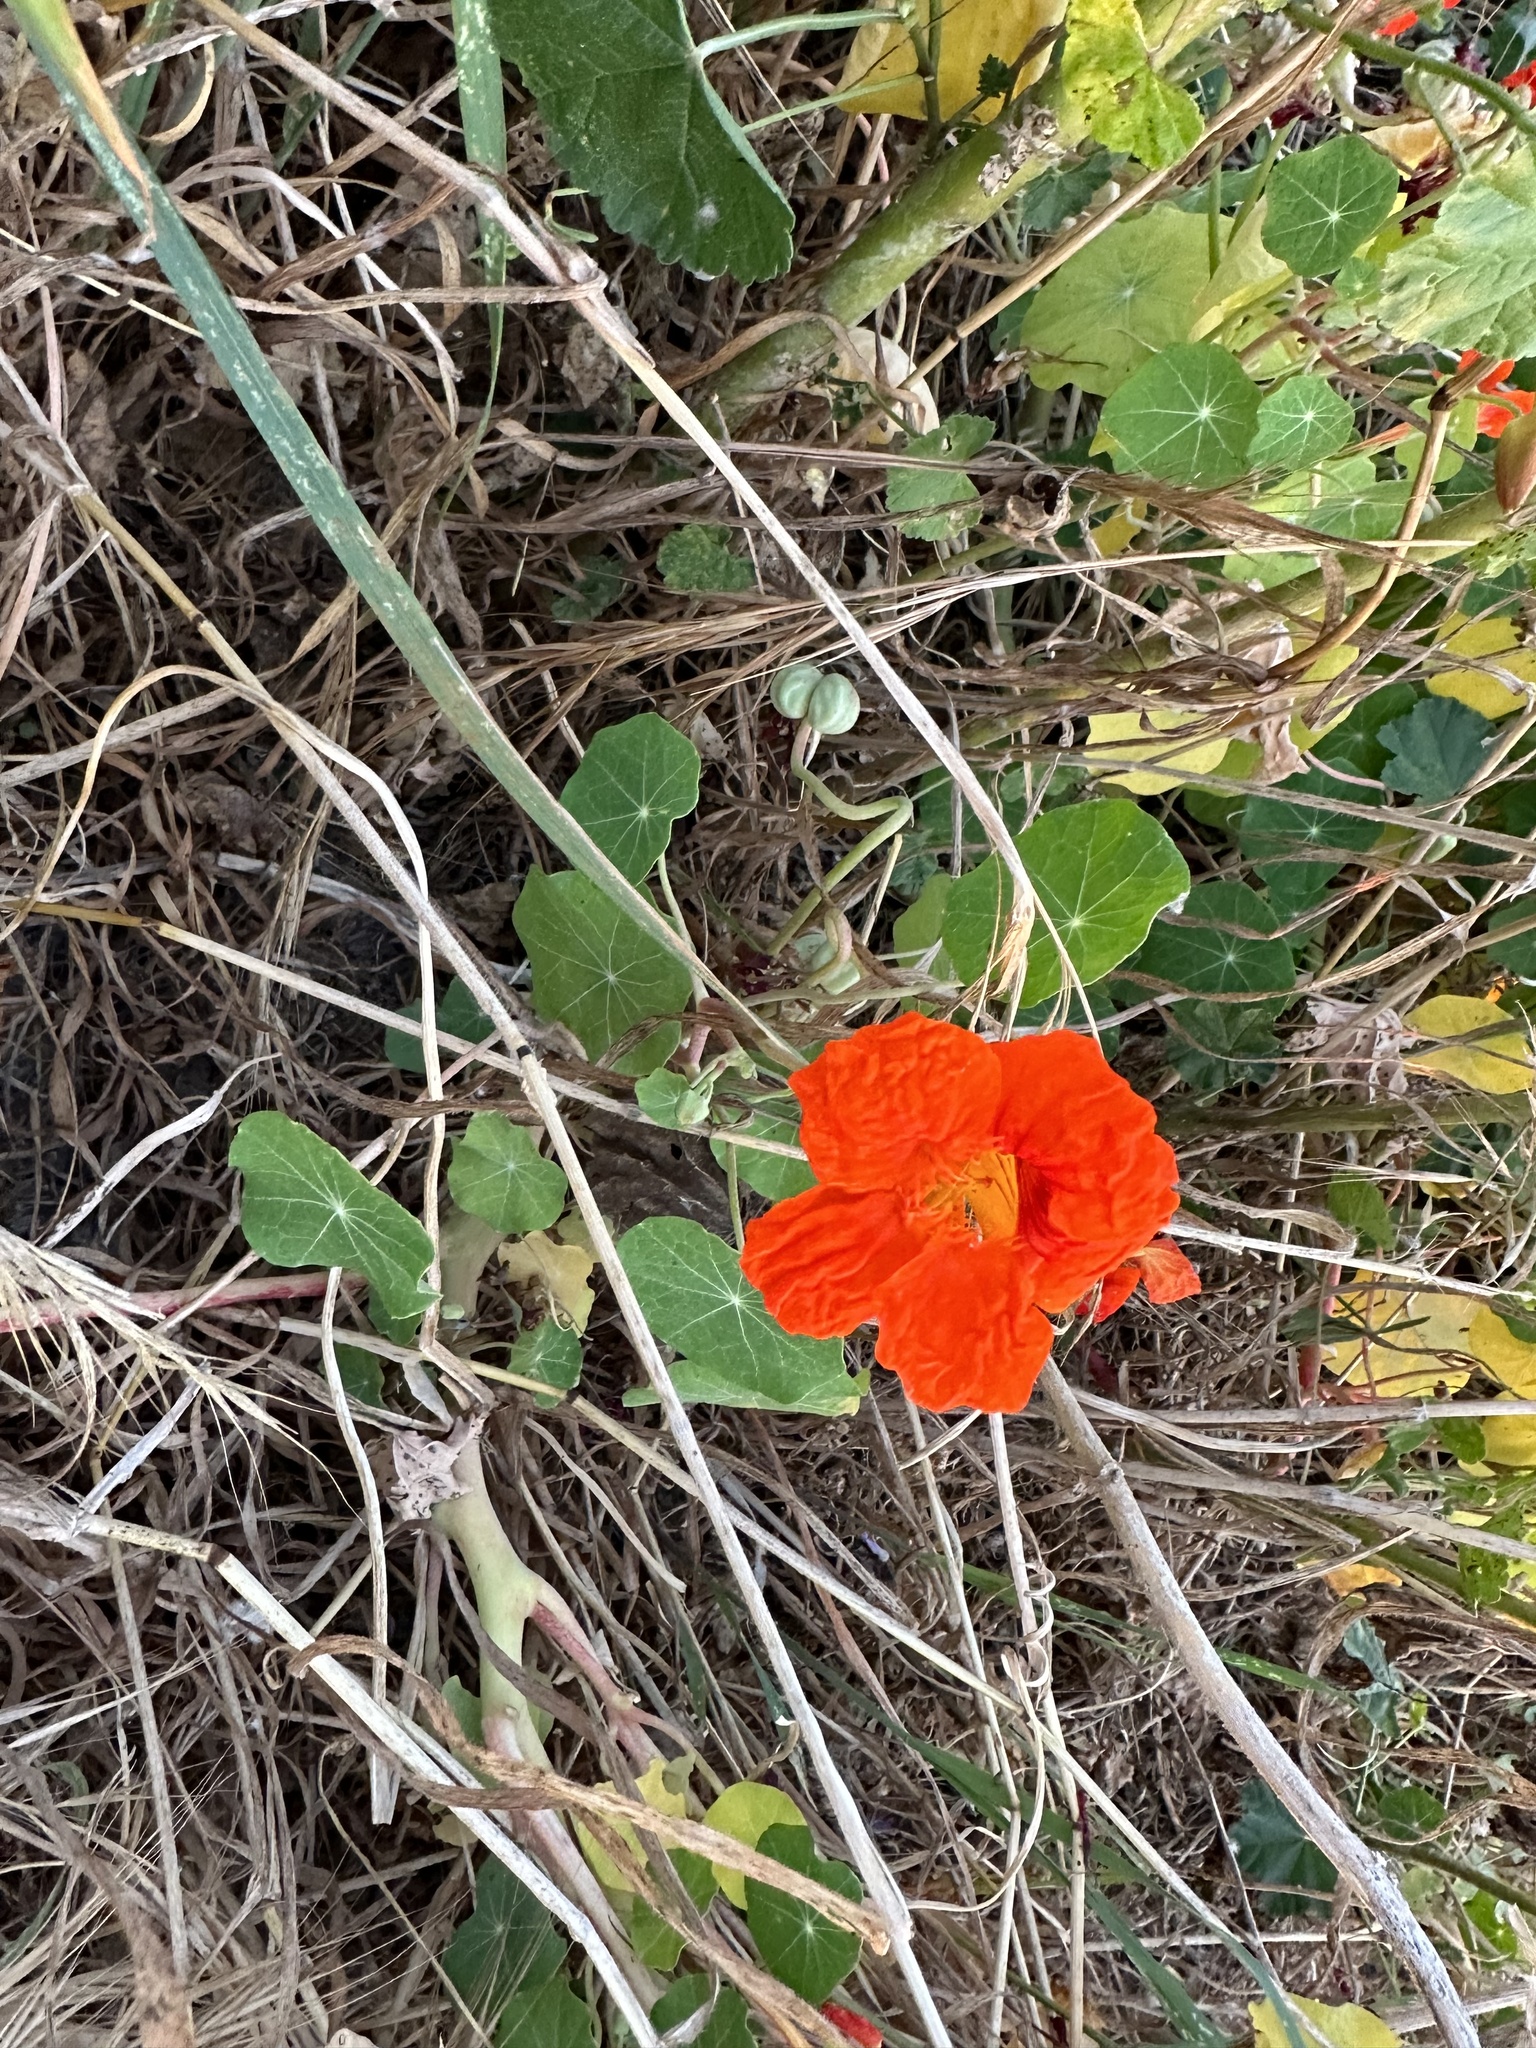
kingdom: Plantae
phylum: Tracheophyta
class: Magnoliopsida
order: Brassicales
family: Tropaeolaceae
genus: Tropaeolum
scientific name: Tropaeolum majus
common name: Nasturtium
